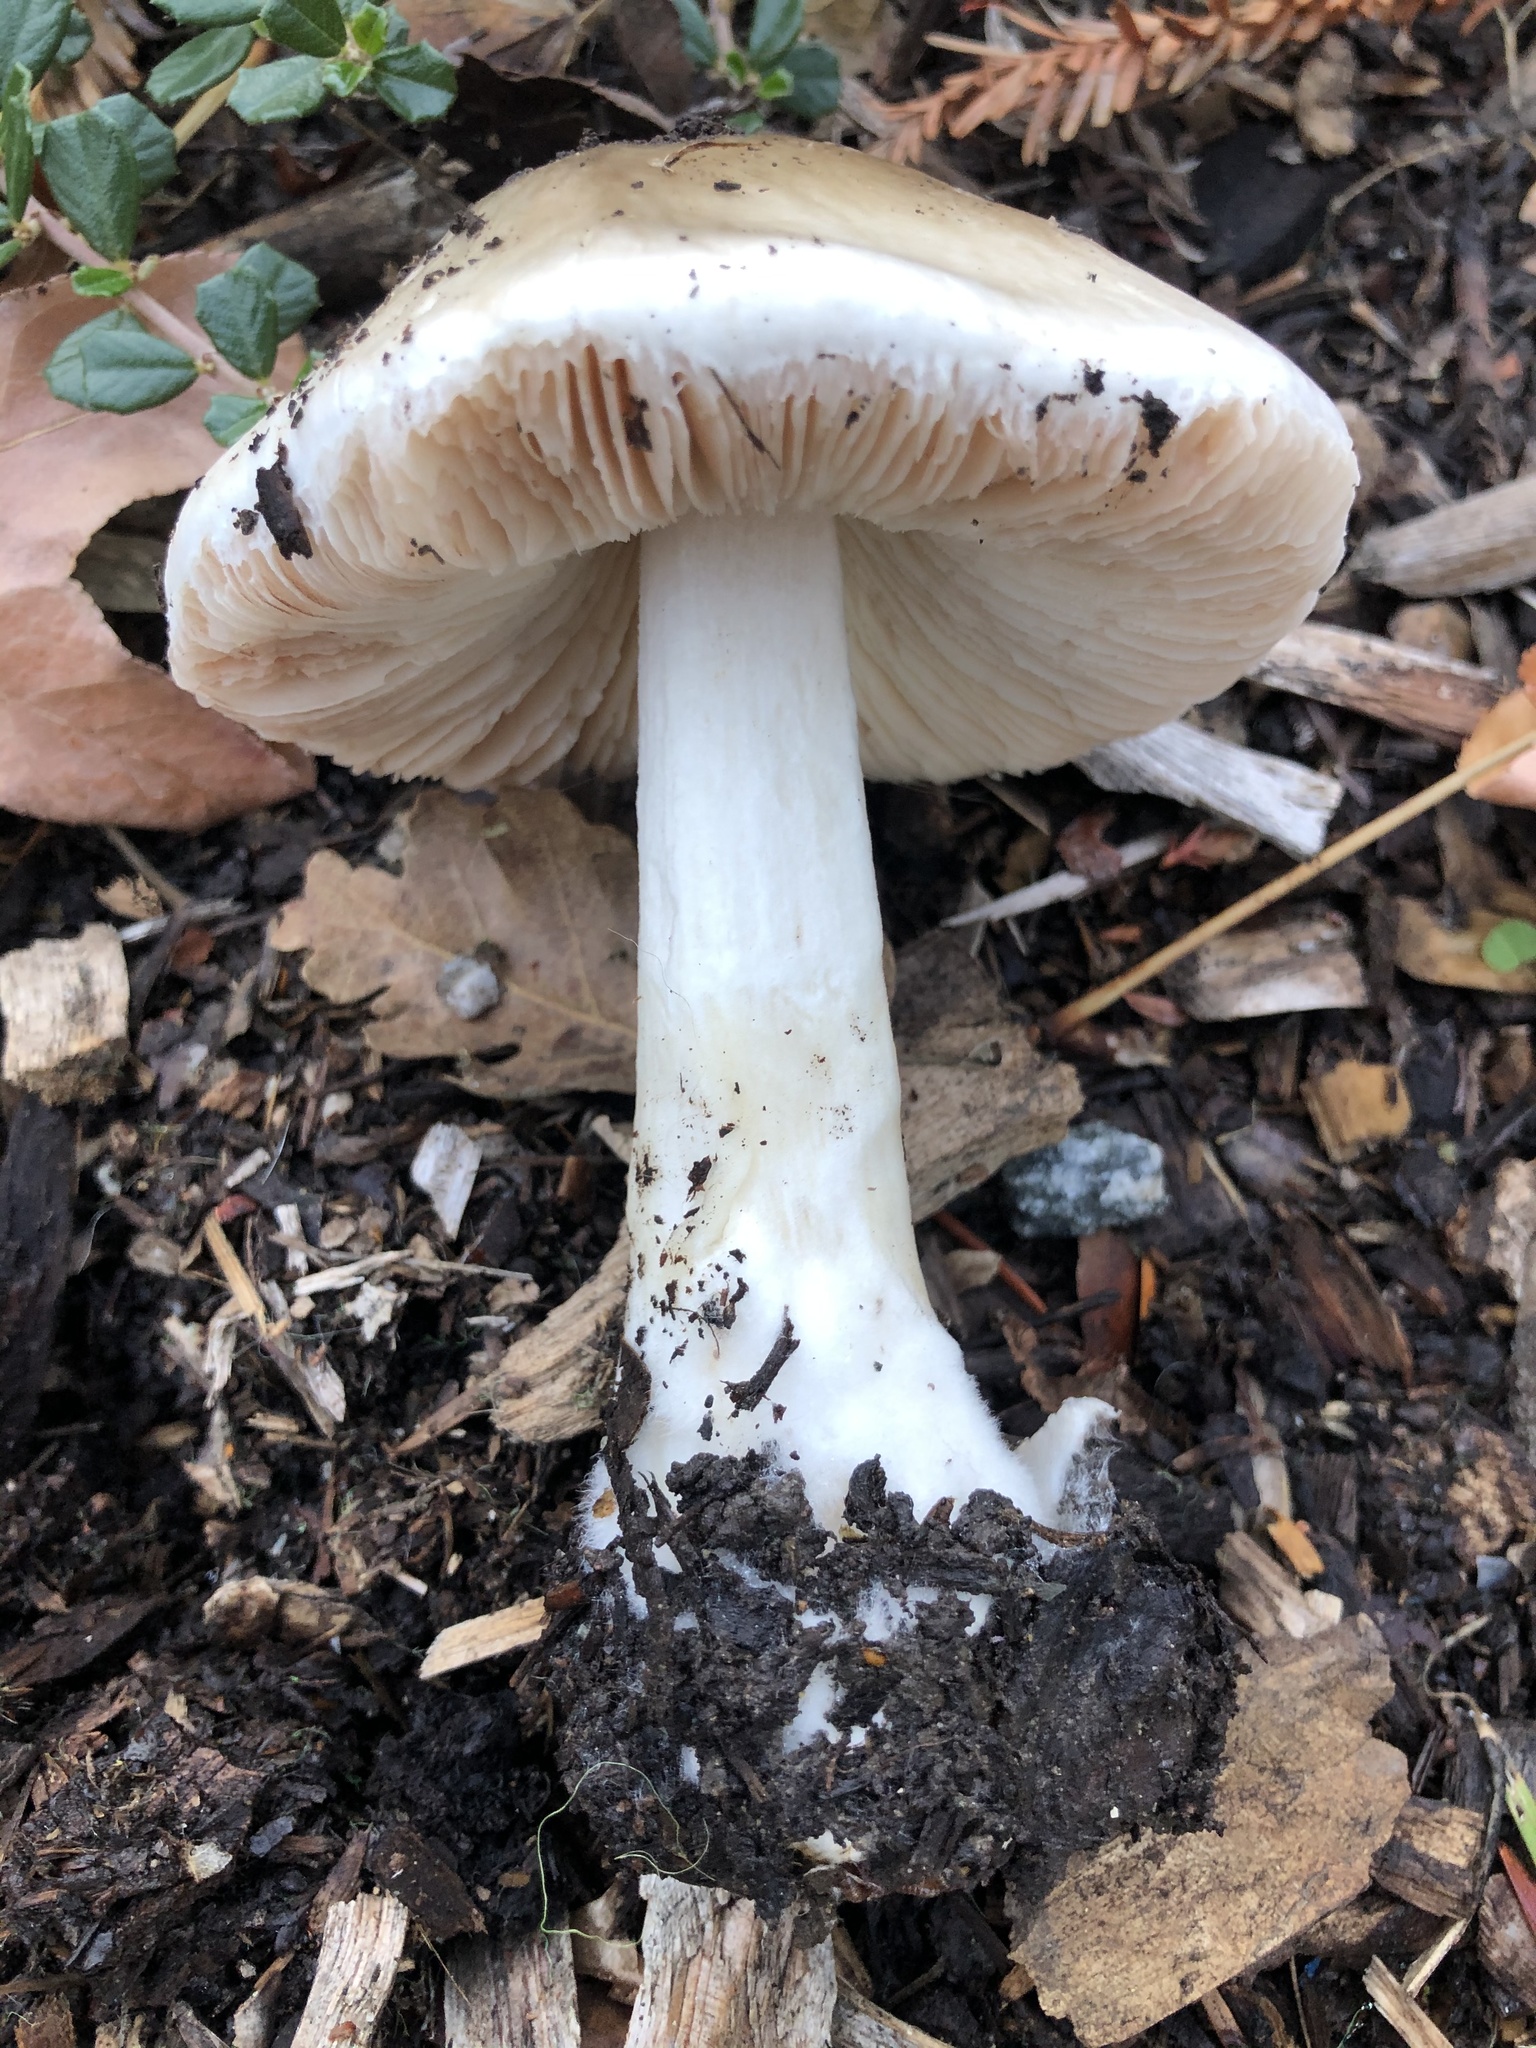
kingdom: Fungi
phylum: Basidiomycota
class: Agaricomycetes
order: Agaricales
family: Pluteaceae
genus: Volvopluteus
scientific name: Volvopluteus gloiocephalus
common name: Stubble rosegill
